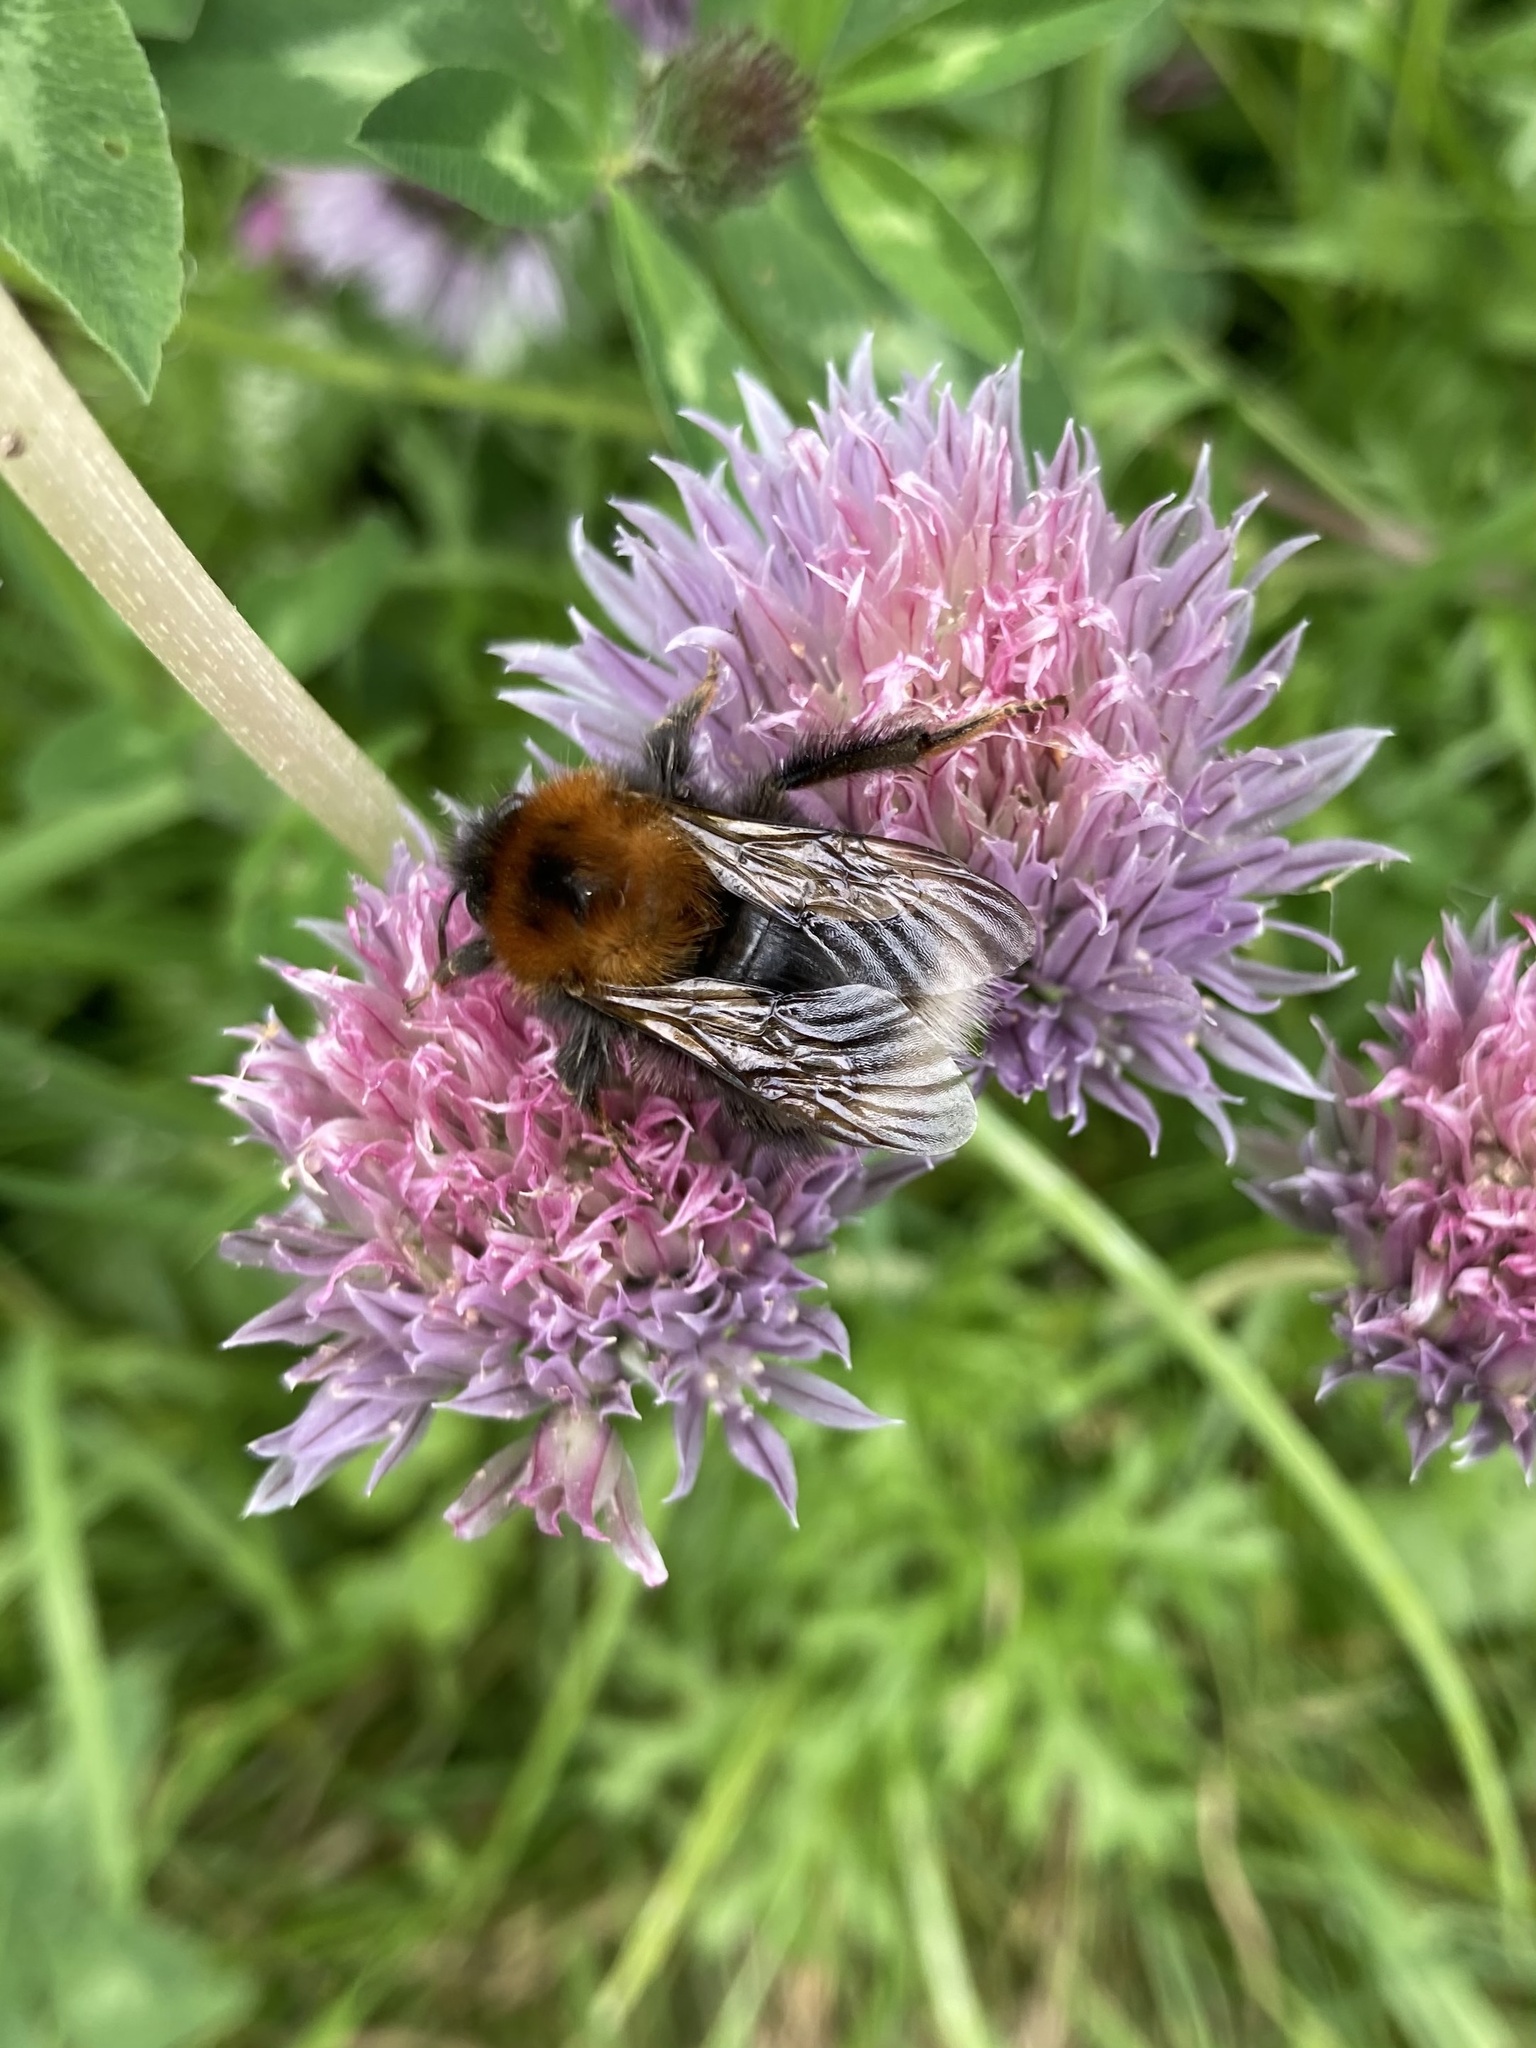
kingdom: Animalia
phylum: Arthropoda
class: Insecta
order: Hymenoptera
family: Apidae
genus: Bombus
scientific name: Bombus hypnorum
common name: New garden bumblebee
